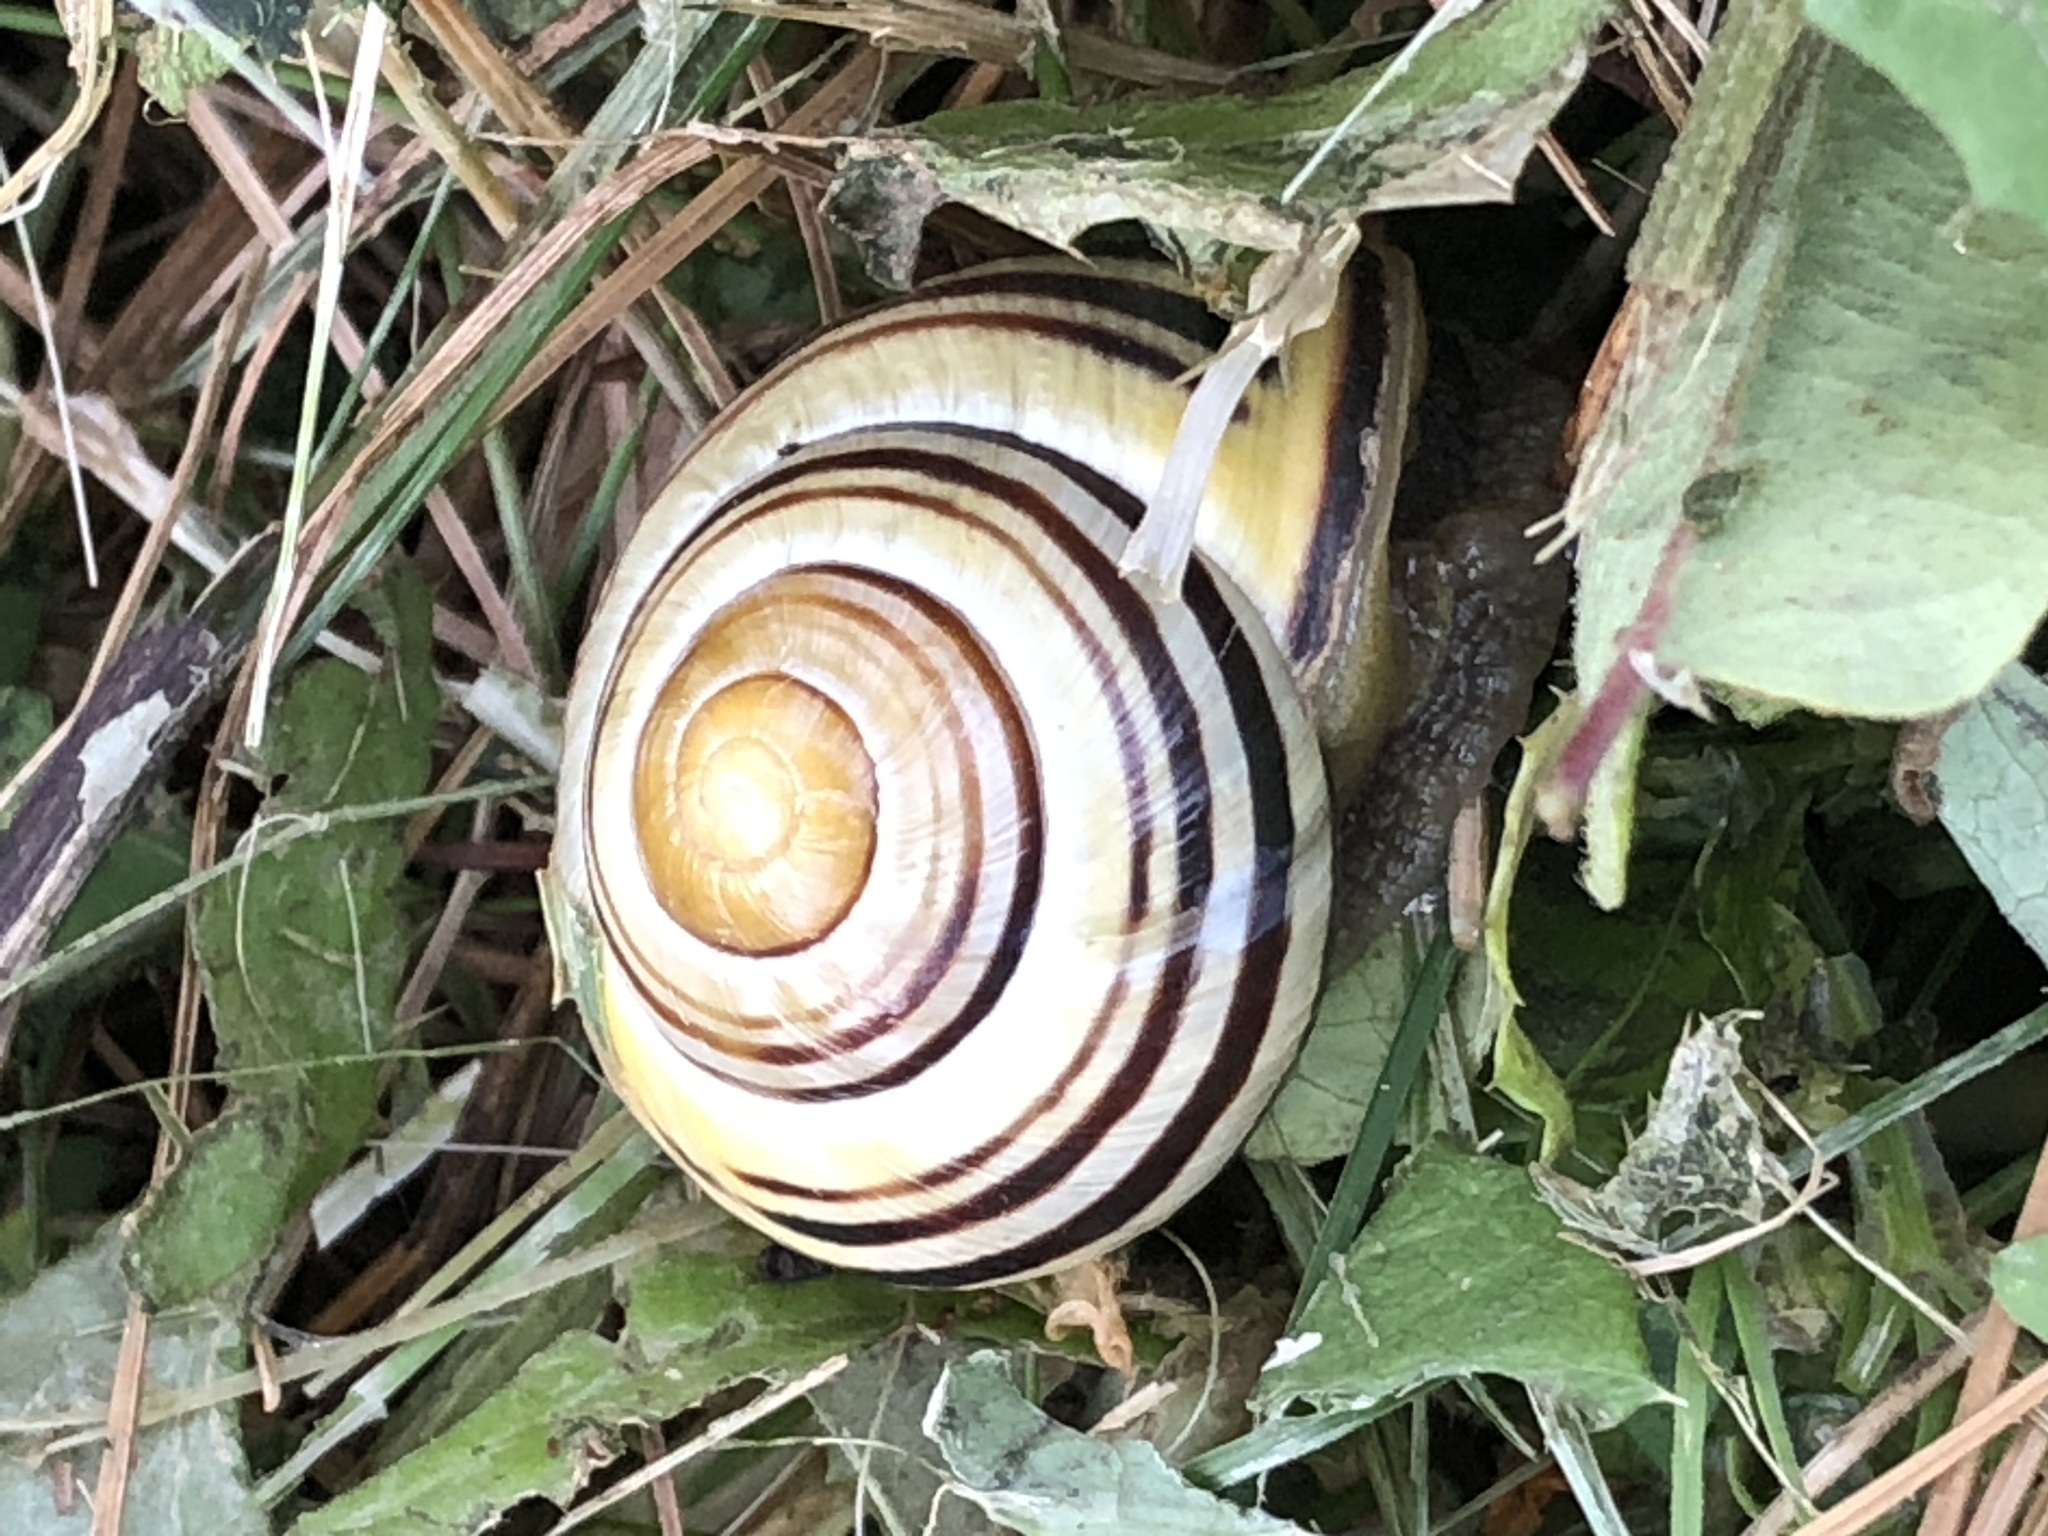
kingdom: Animalia
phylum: Mollusca
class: Gastropoda
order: Stylommatophora
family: Helicidae
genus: Cepaea
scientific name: Cepaea nemoralis
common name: Grovesnail
